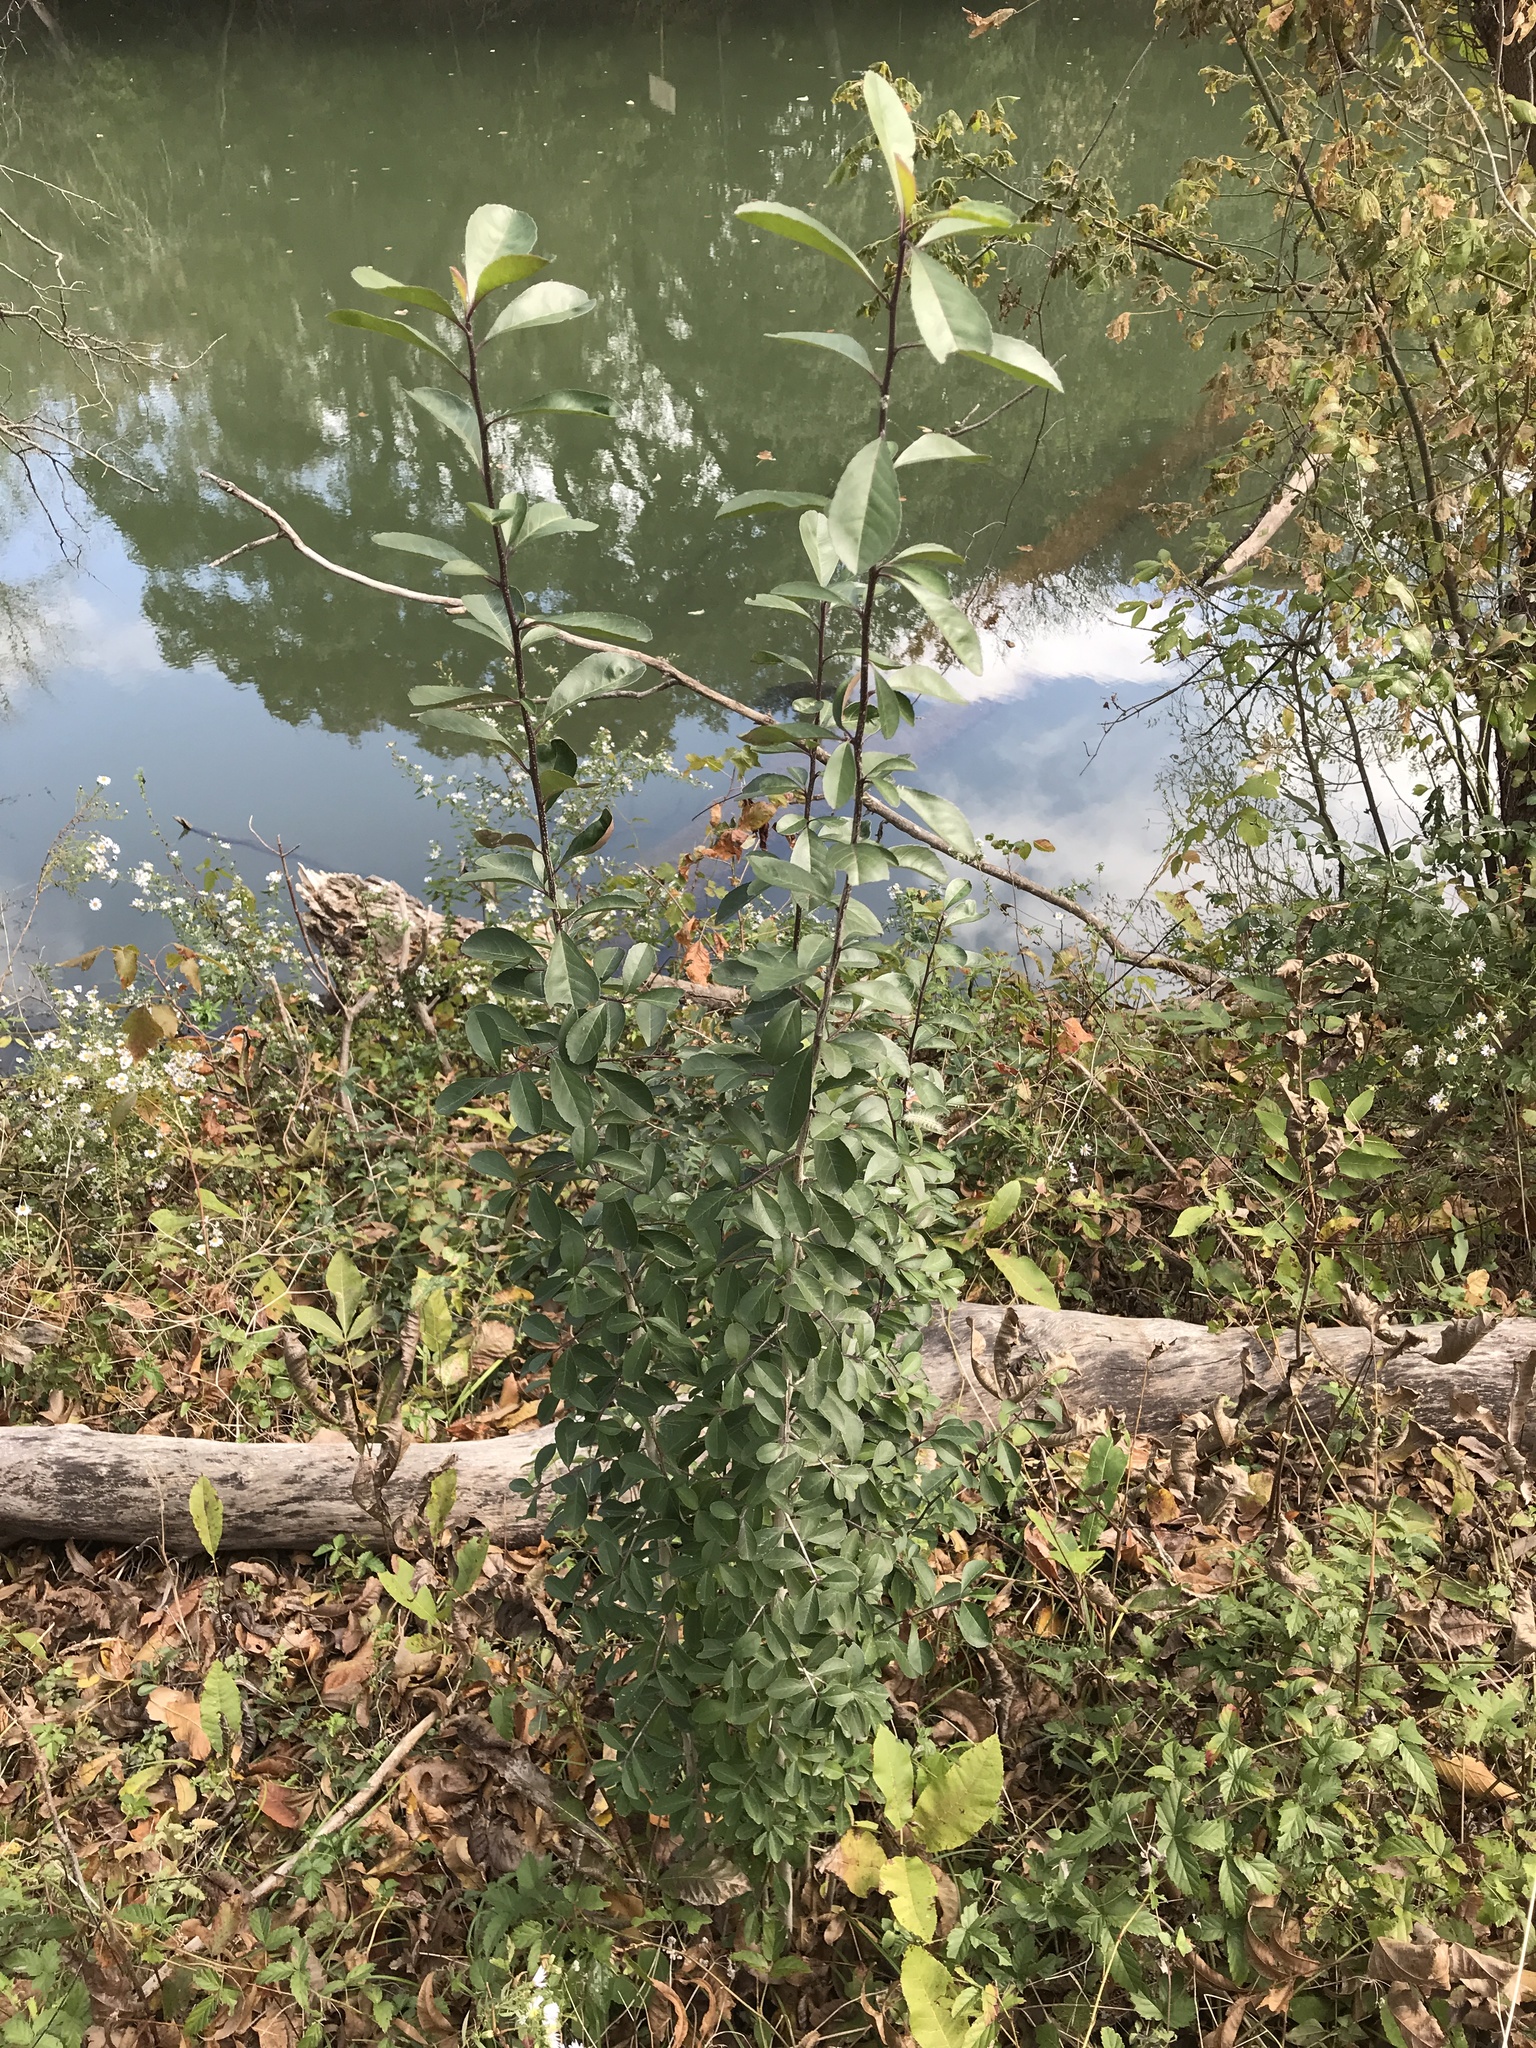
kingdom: Plantae
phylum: Tracheophyta
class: Magnoliopsida
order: Aquifoliales
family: Aquifoliaceae
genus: Ilex
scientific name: Ilex decidua
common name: Possum-haw
